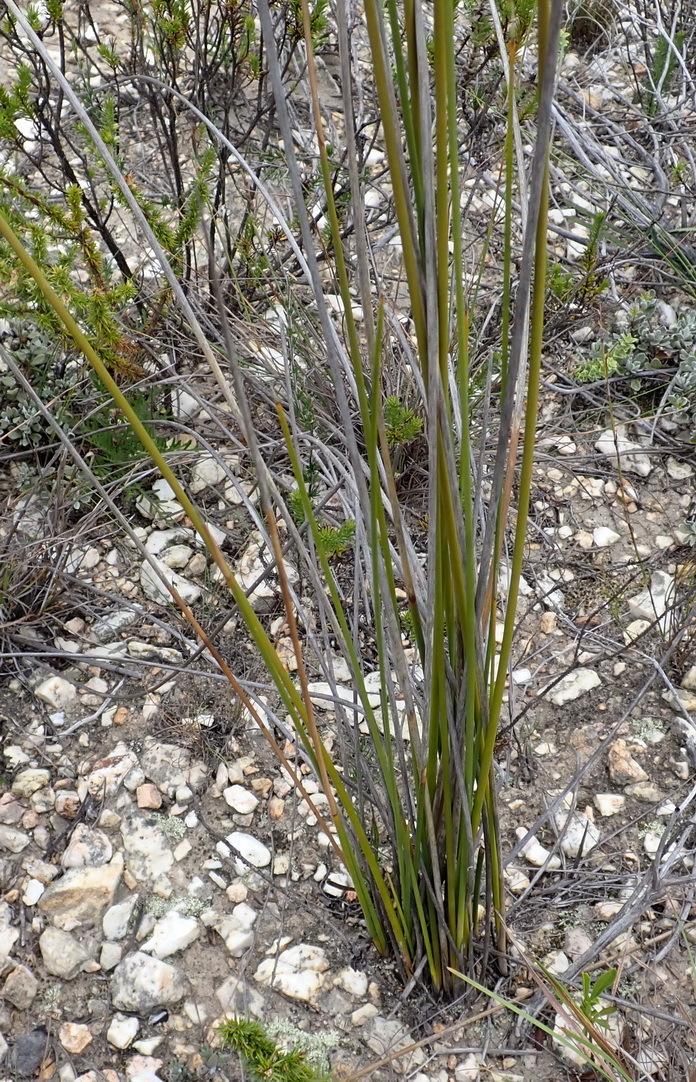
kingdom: Plantae
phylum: Tracheophyta
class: Liliopsida
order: Asparagales
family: Iridaceae
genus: Bobartia
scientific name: Bobartia macrospatha
